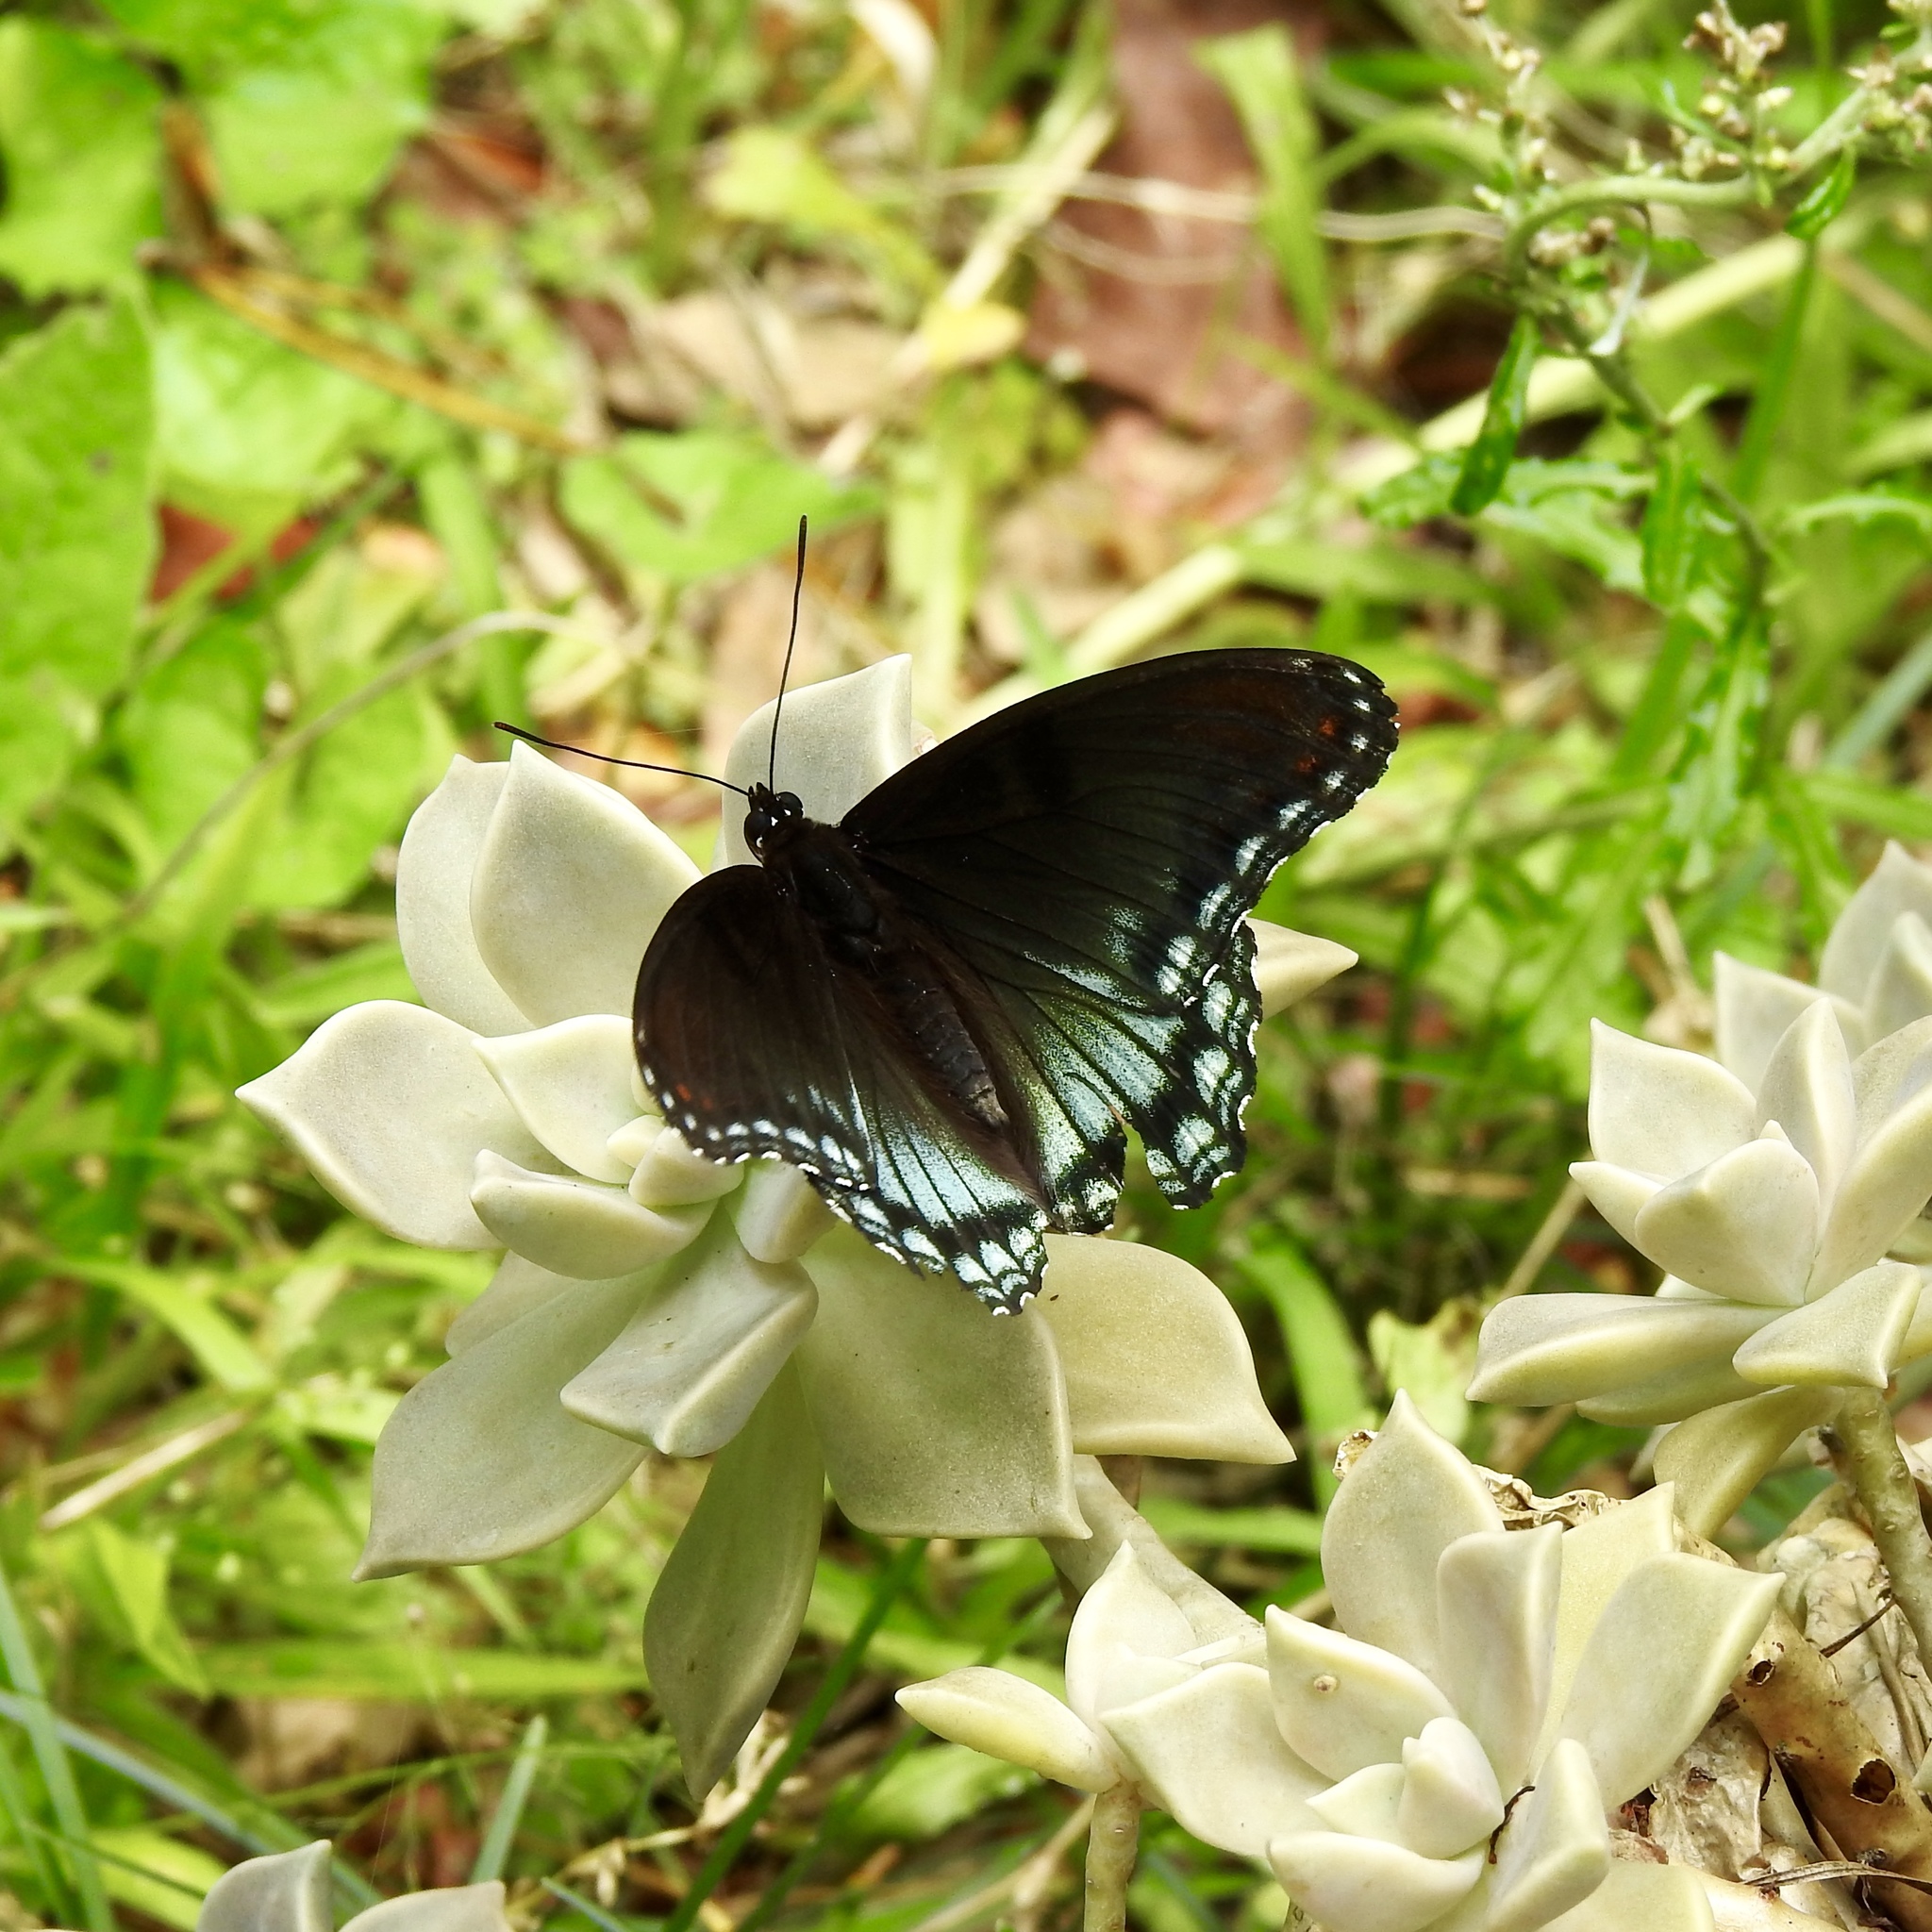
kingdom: Animalia
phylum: Arthropoda
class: Insecta
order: Lepidoptera
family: Nymphalidae
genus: Limenitis
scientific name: Limenitis astyanax
